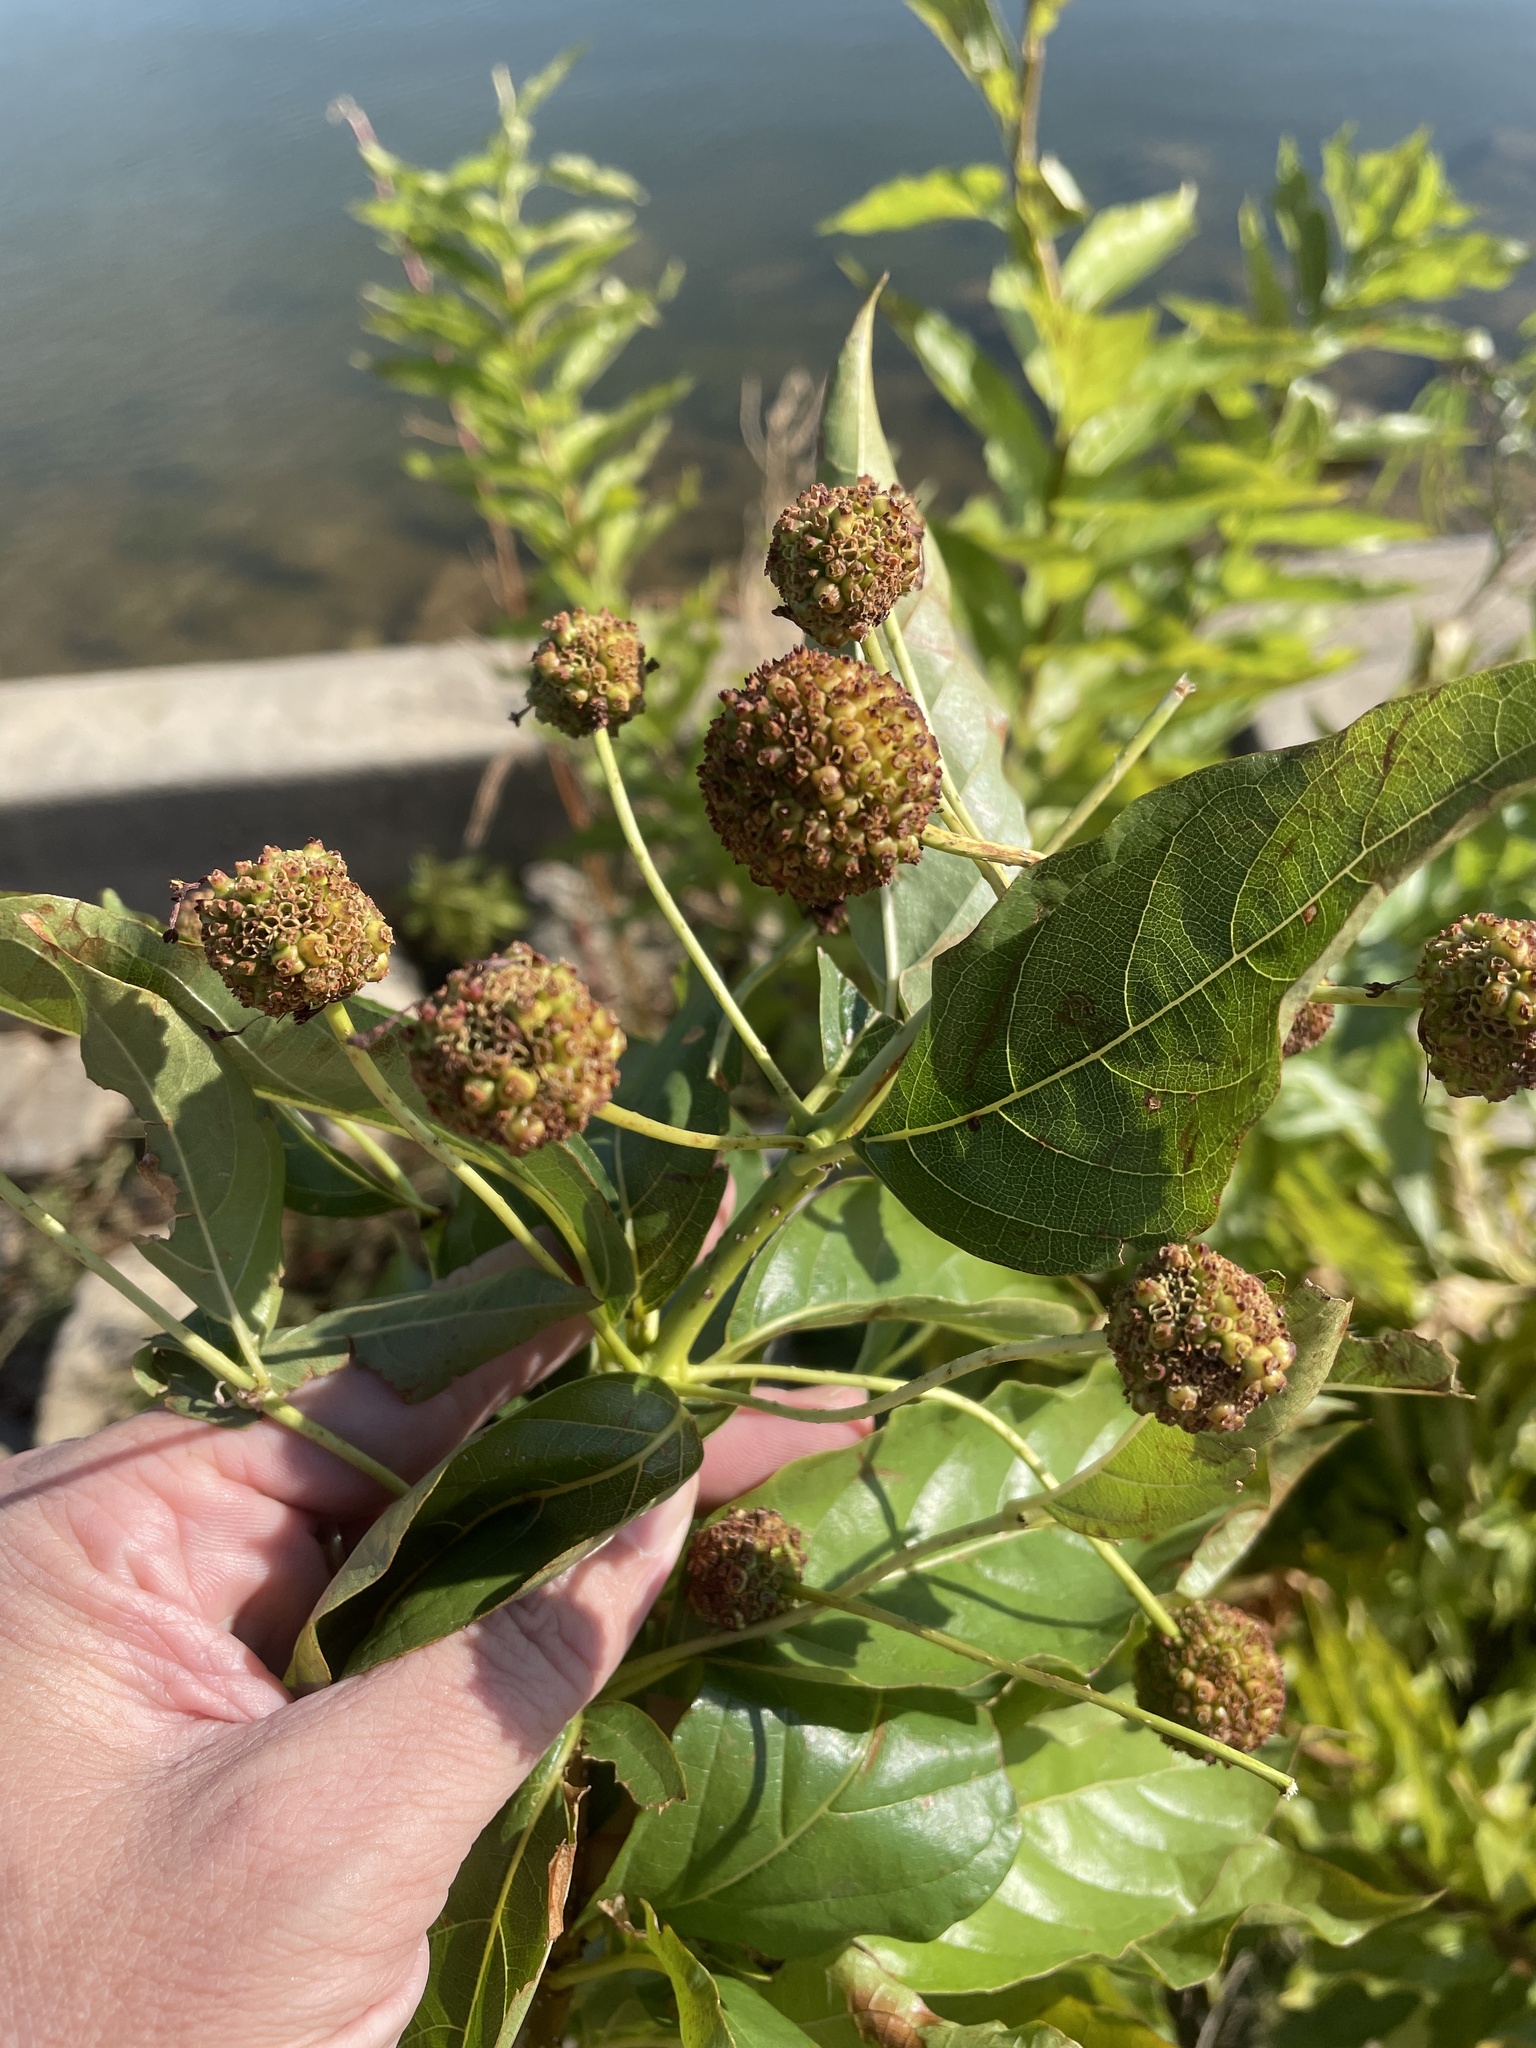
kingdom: Plantae
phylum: Tracheophyta
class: Magnoliopsida
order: Gentianales
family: Rubiaceae
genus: Cephalanthus
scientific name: Cephalanthus occidentalis
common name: Button-willow
